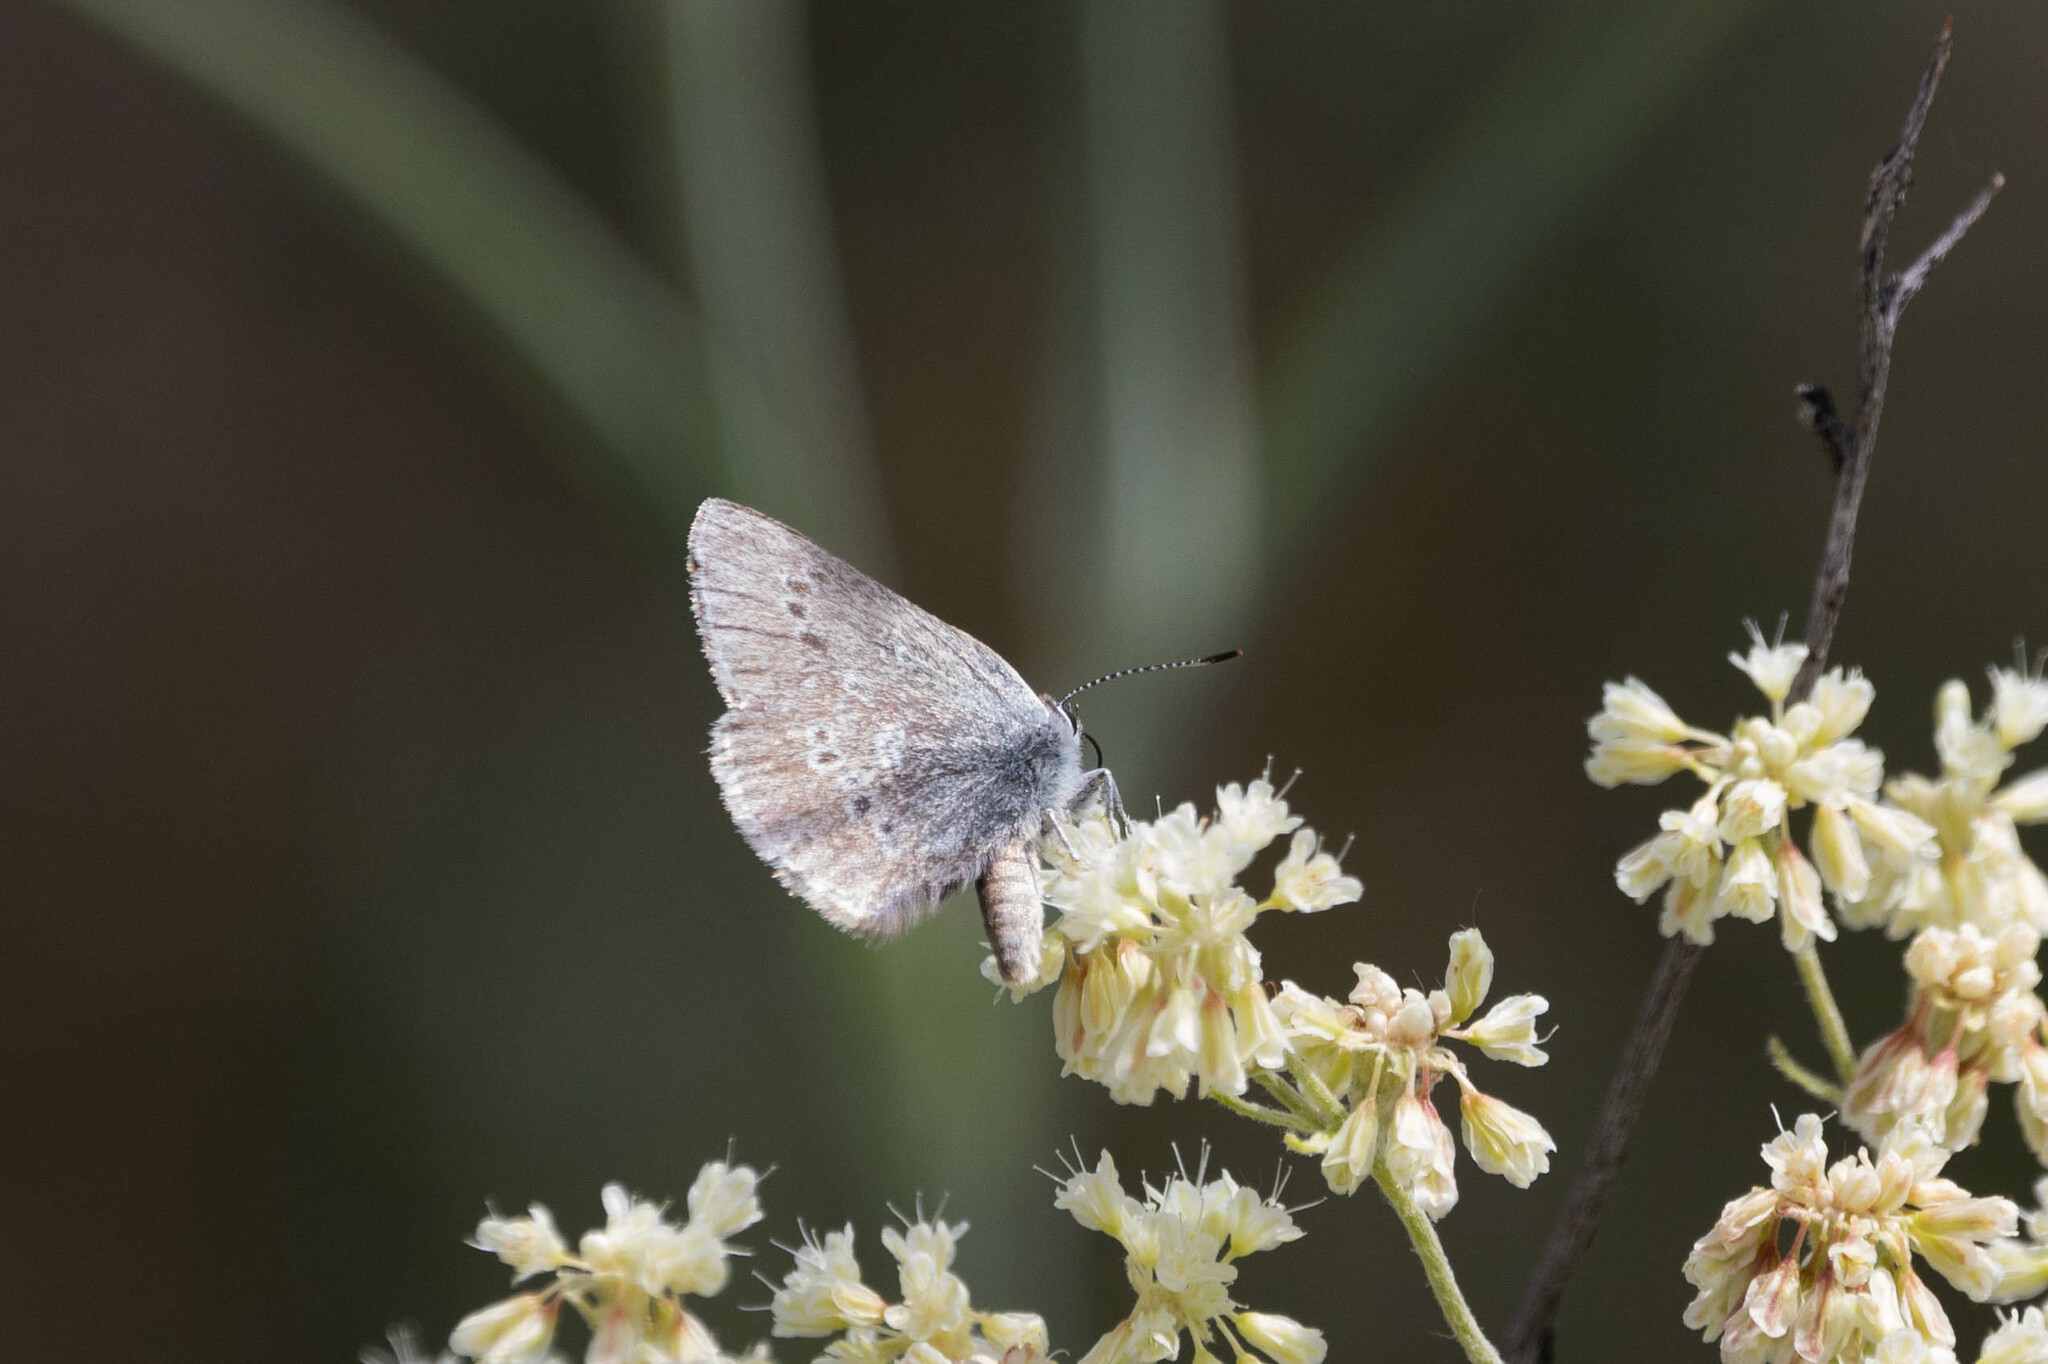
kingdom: Animalia
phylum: Arthropoda
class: Insecta
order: Lepidoptera
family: Lycaenidae
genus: Satyrium
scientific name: Satyrium fuliginosa
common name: Western sooty hairstreak
